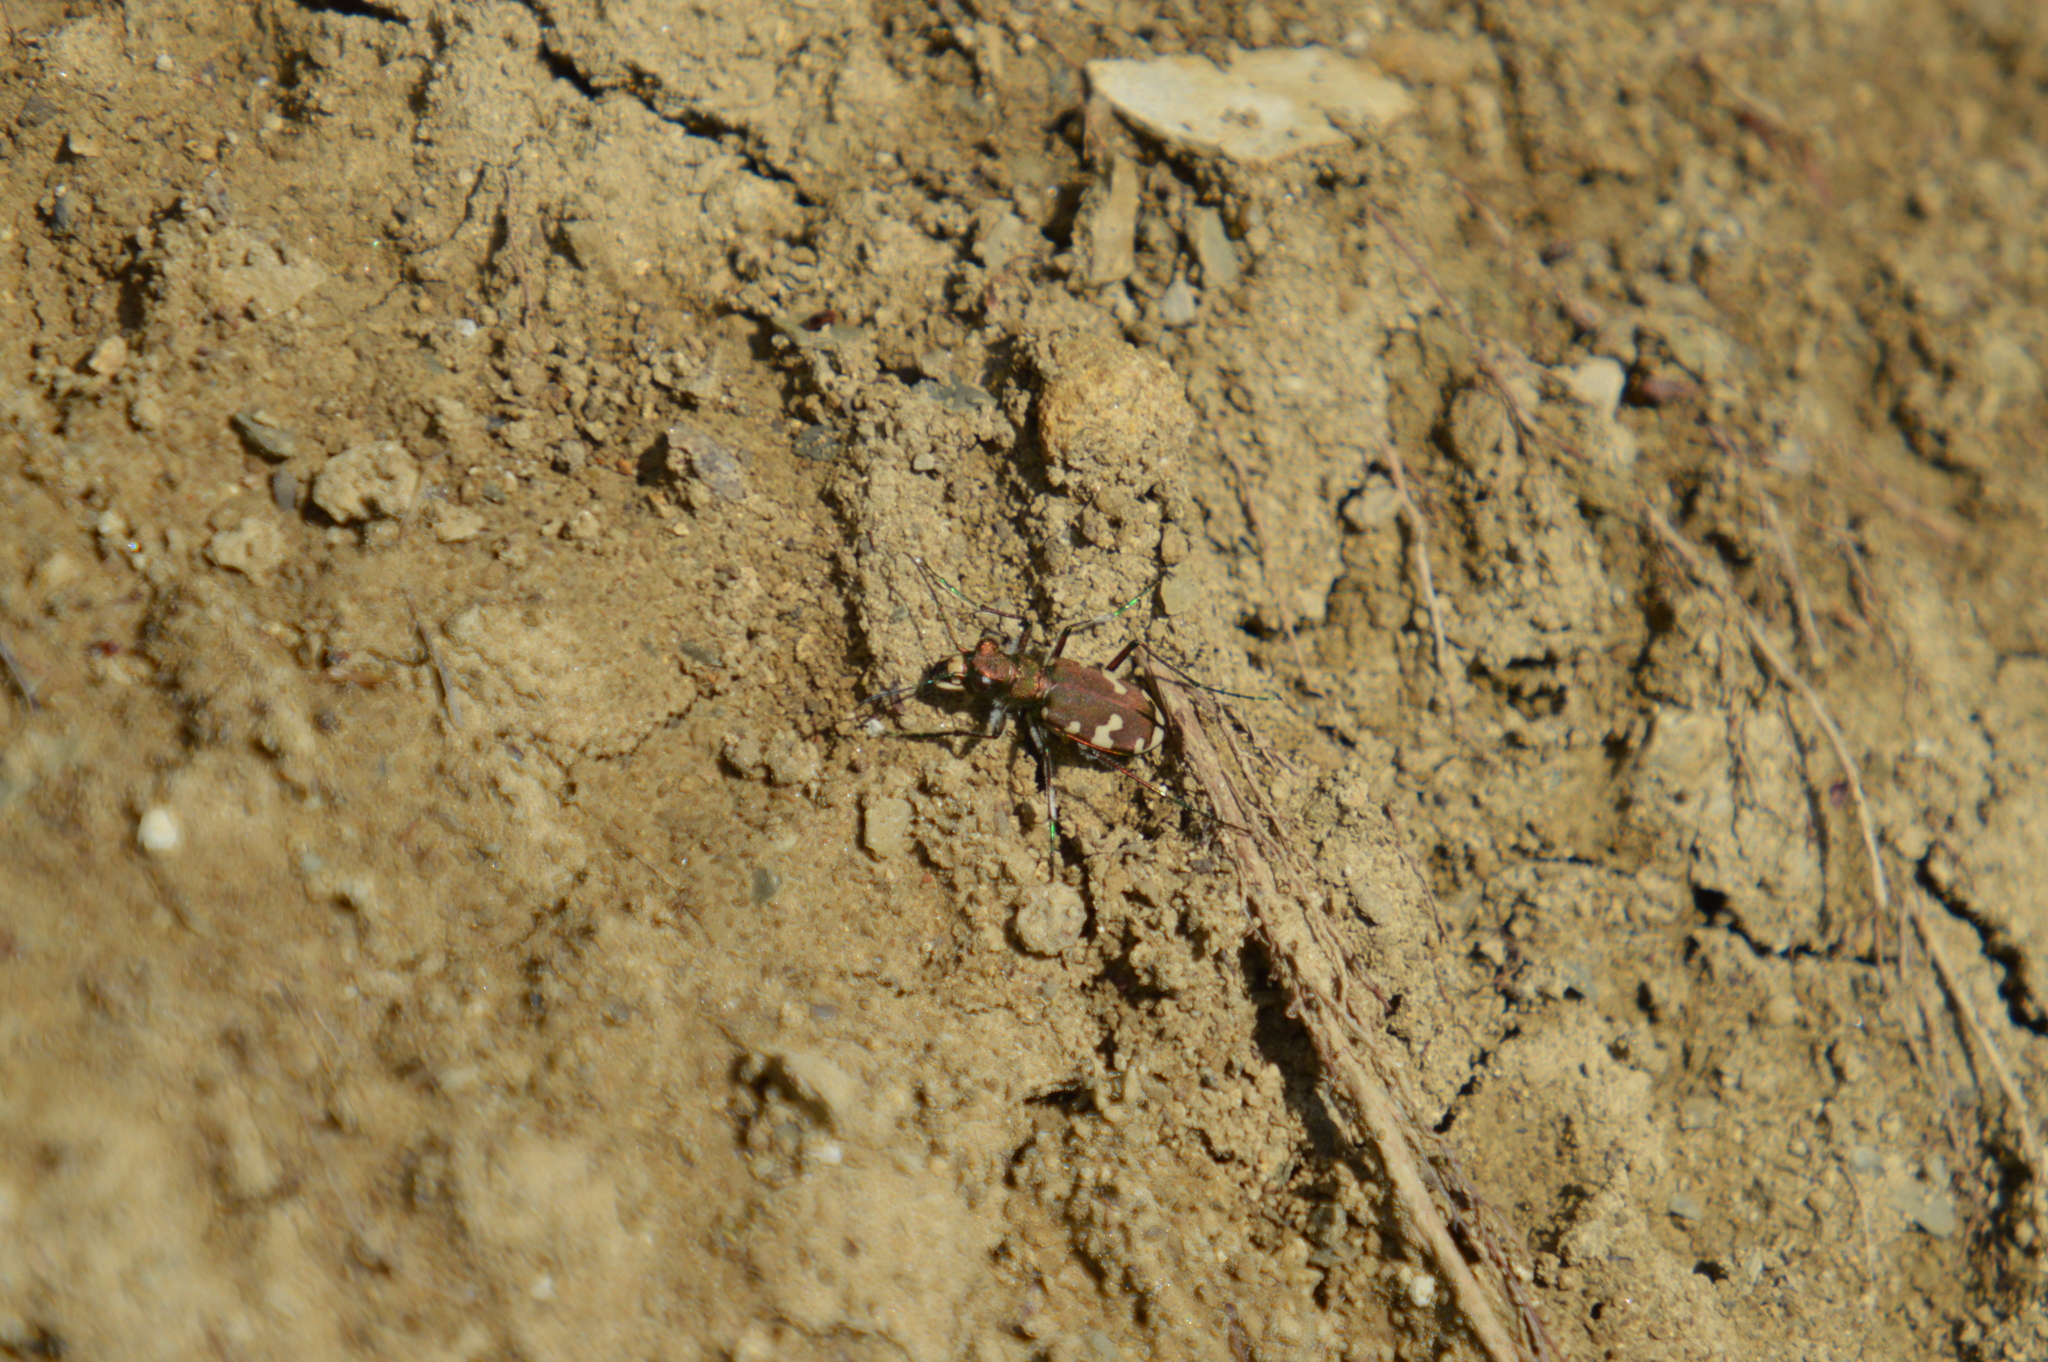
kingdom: Animalia
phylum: Arthropoda
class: Insecta
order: Coleoptera
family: Carabidae
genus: Cicindela
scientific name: Cicindela sylvicola
